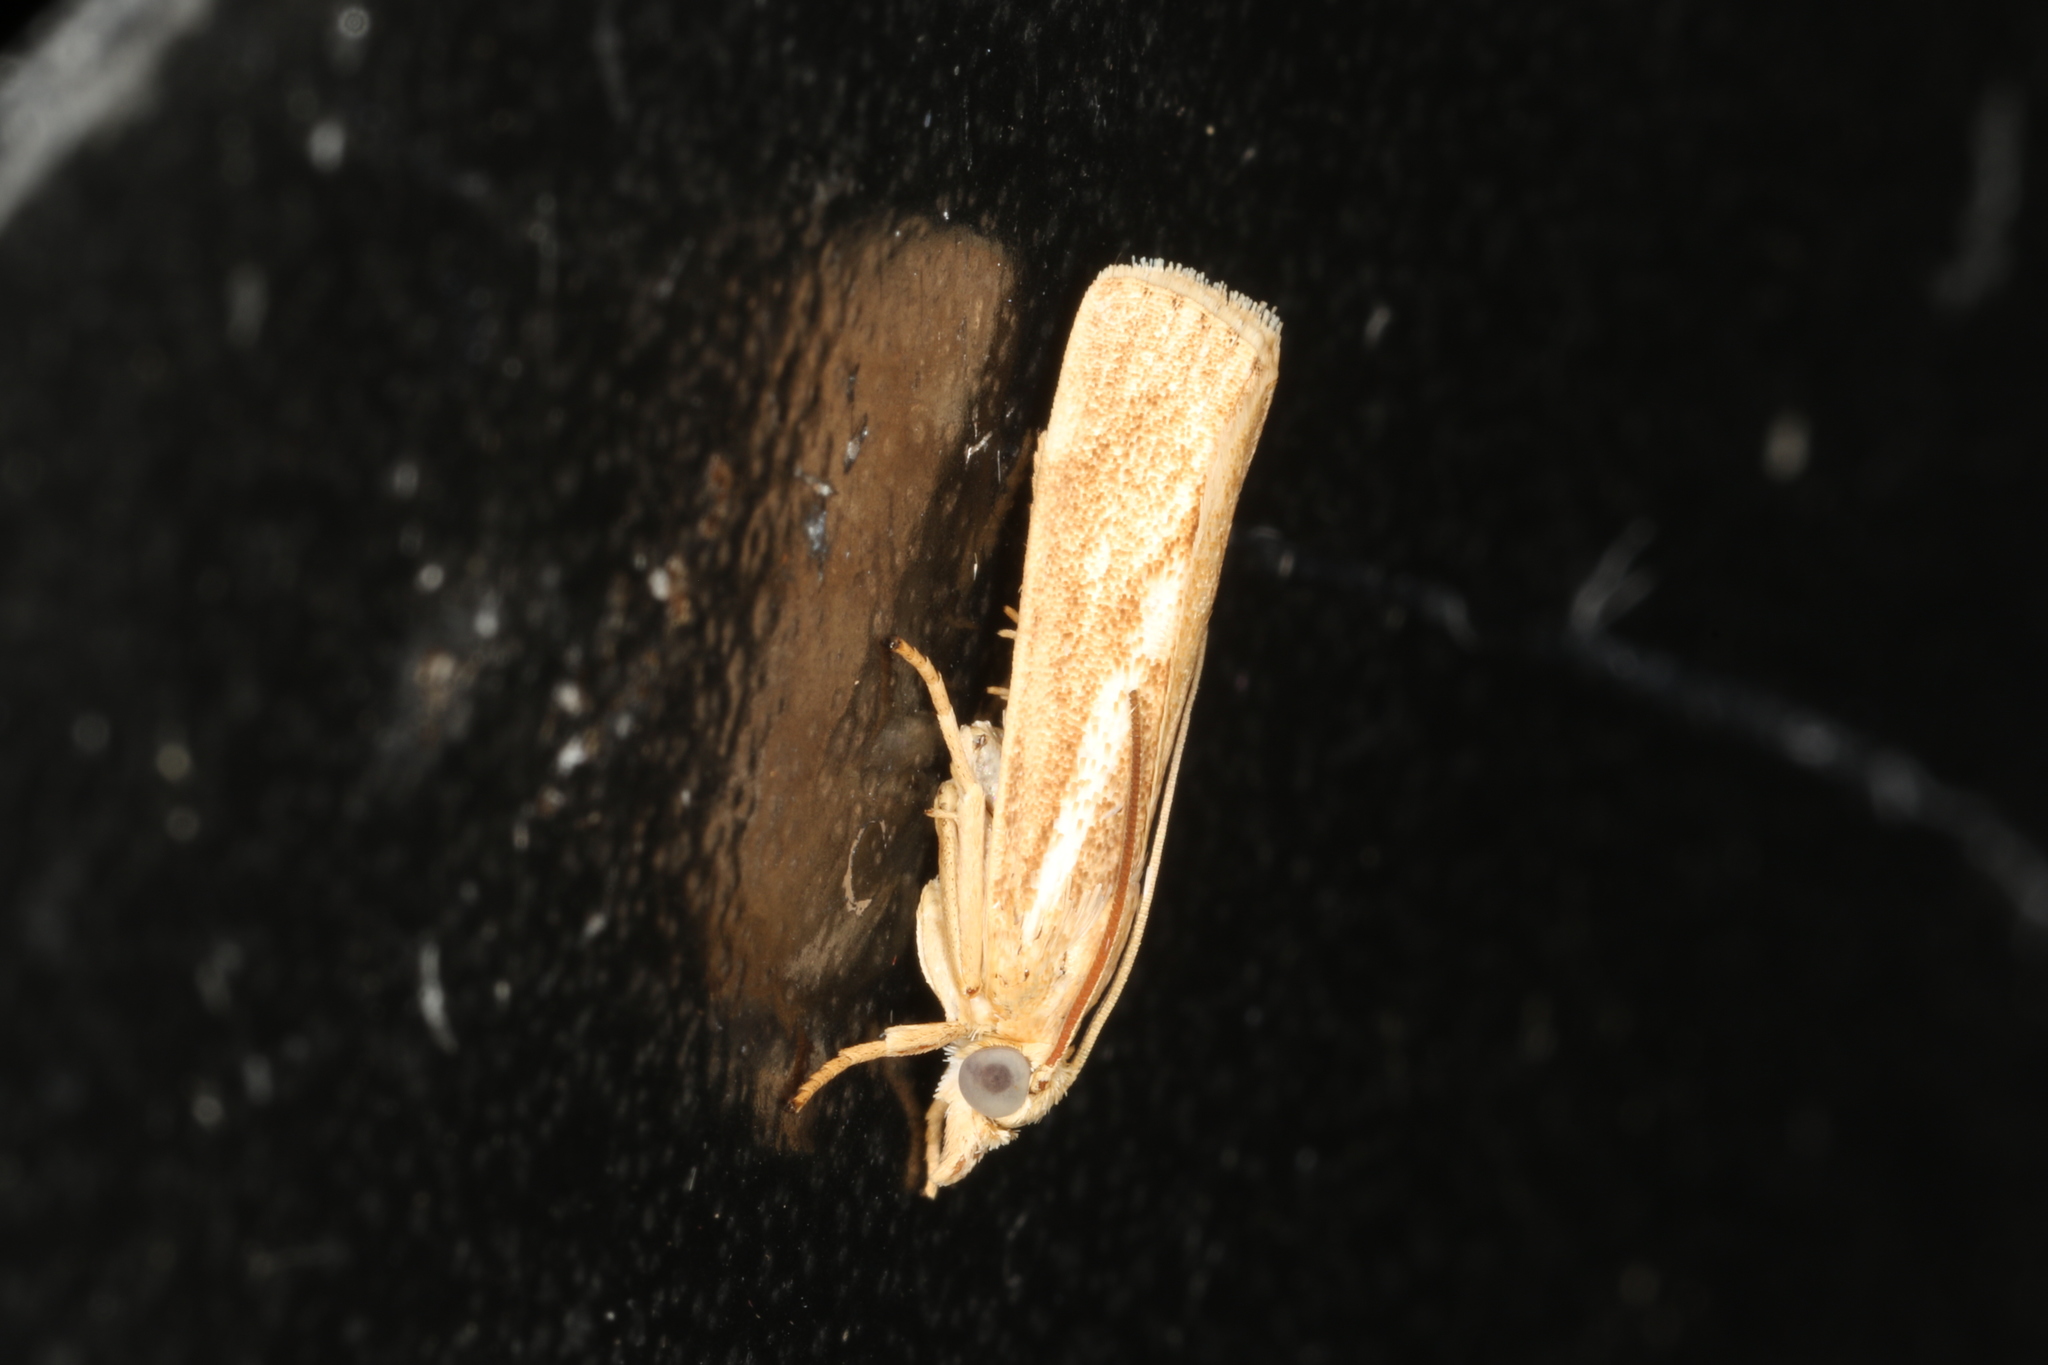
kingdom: Animalia
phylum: Arthropoda
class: Insecta
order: Lepidoptera
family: Crambidae
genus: Conocrambus
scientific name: Conocrambus medioradiellus
